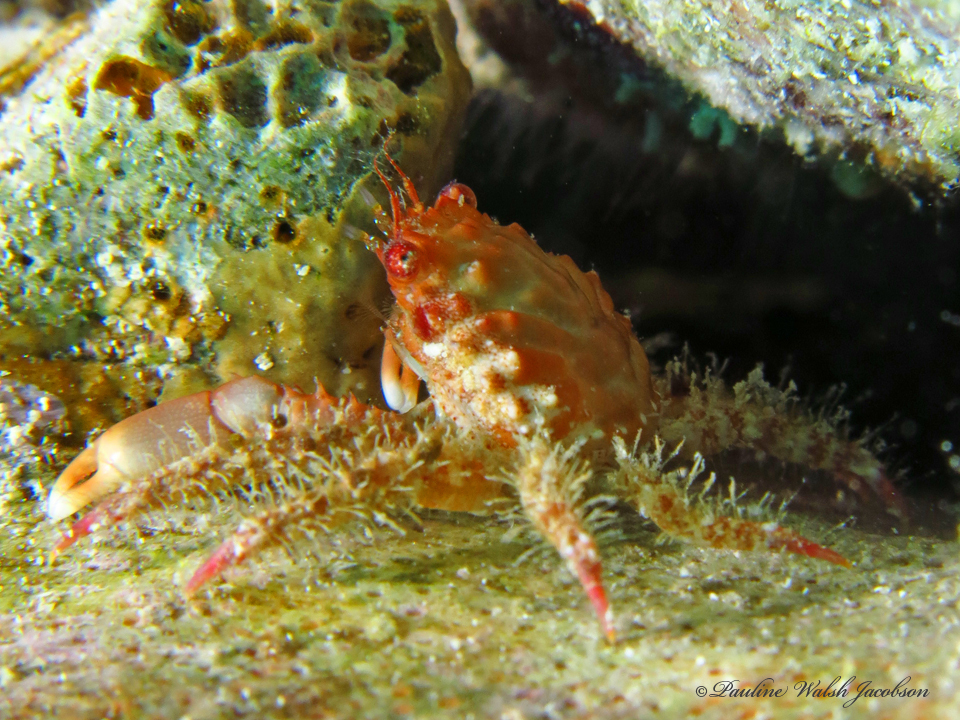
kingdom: Animalia
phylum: Arthropoda
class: Malacostraca
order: Decapoda
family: Mithracidae
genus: Mithraculus
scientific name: Mithraculus forceps
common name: Red-ridged clinging crab
